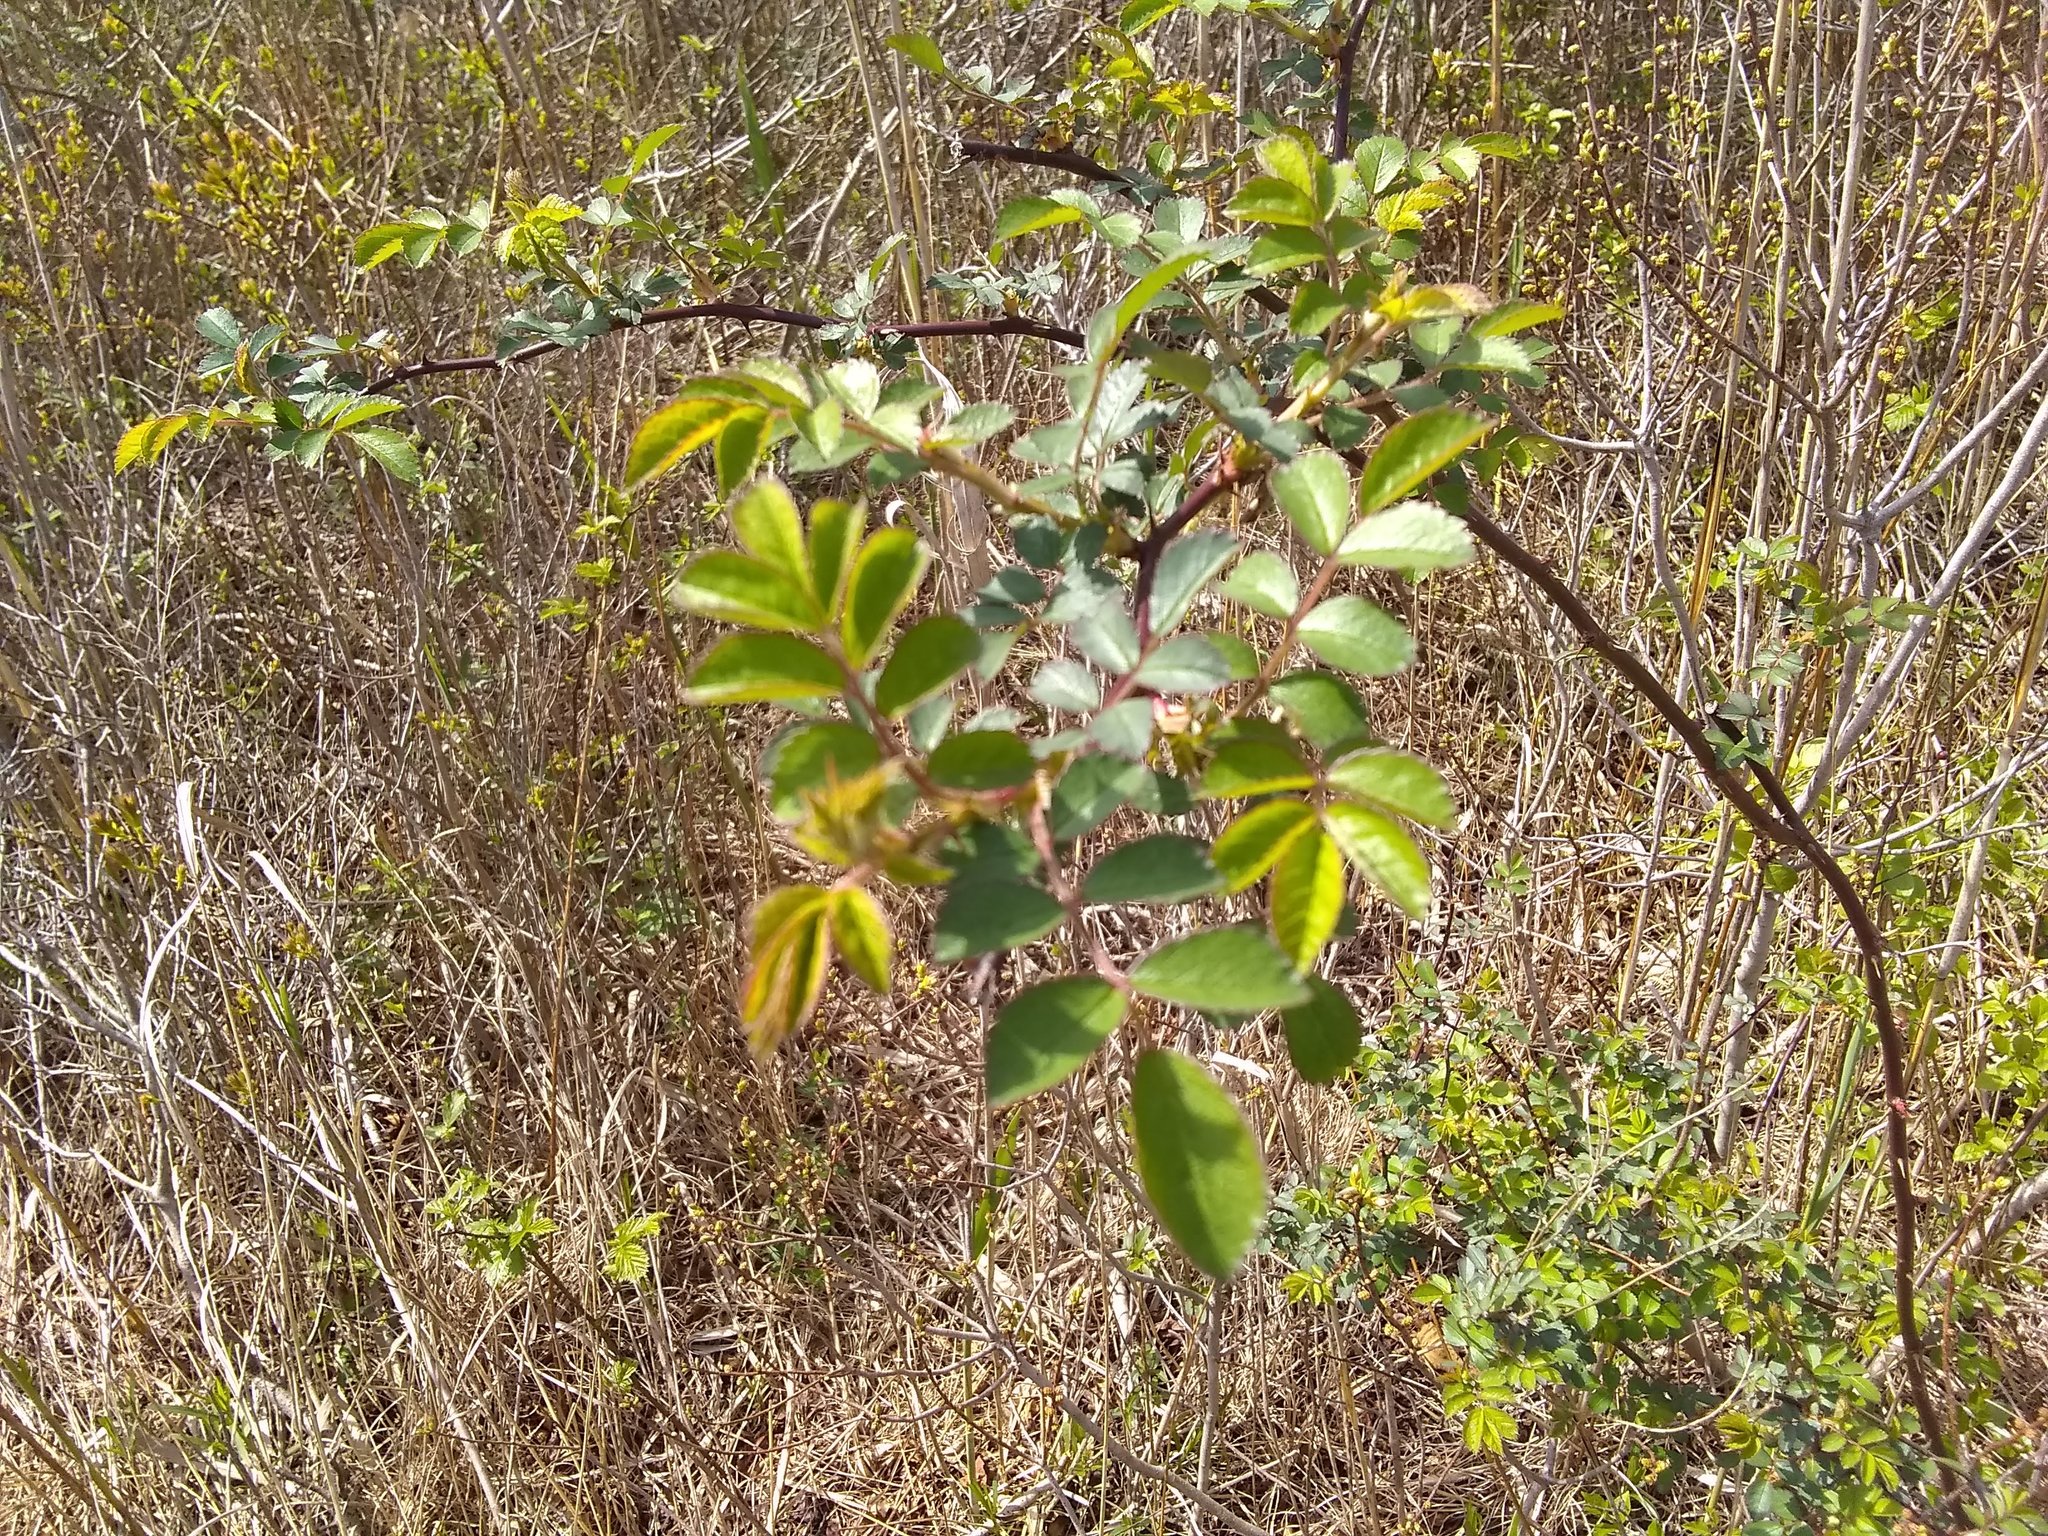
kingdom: Plantae
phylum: Tracheophyta
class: Magnoliopsida
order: Rosales
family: Rosaceae
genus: Rosa
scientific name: Rosa multiflora
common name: Multiflora rose
